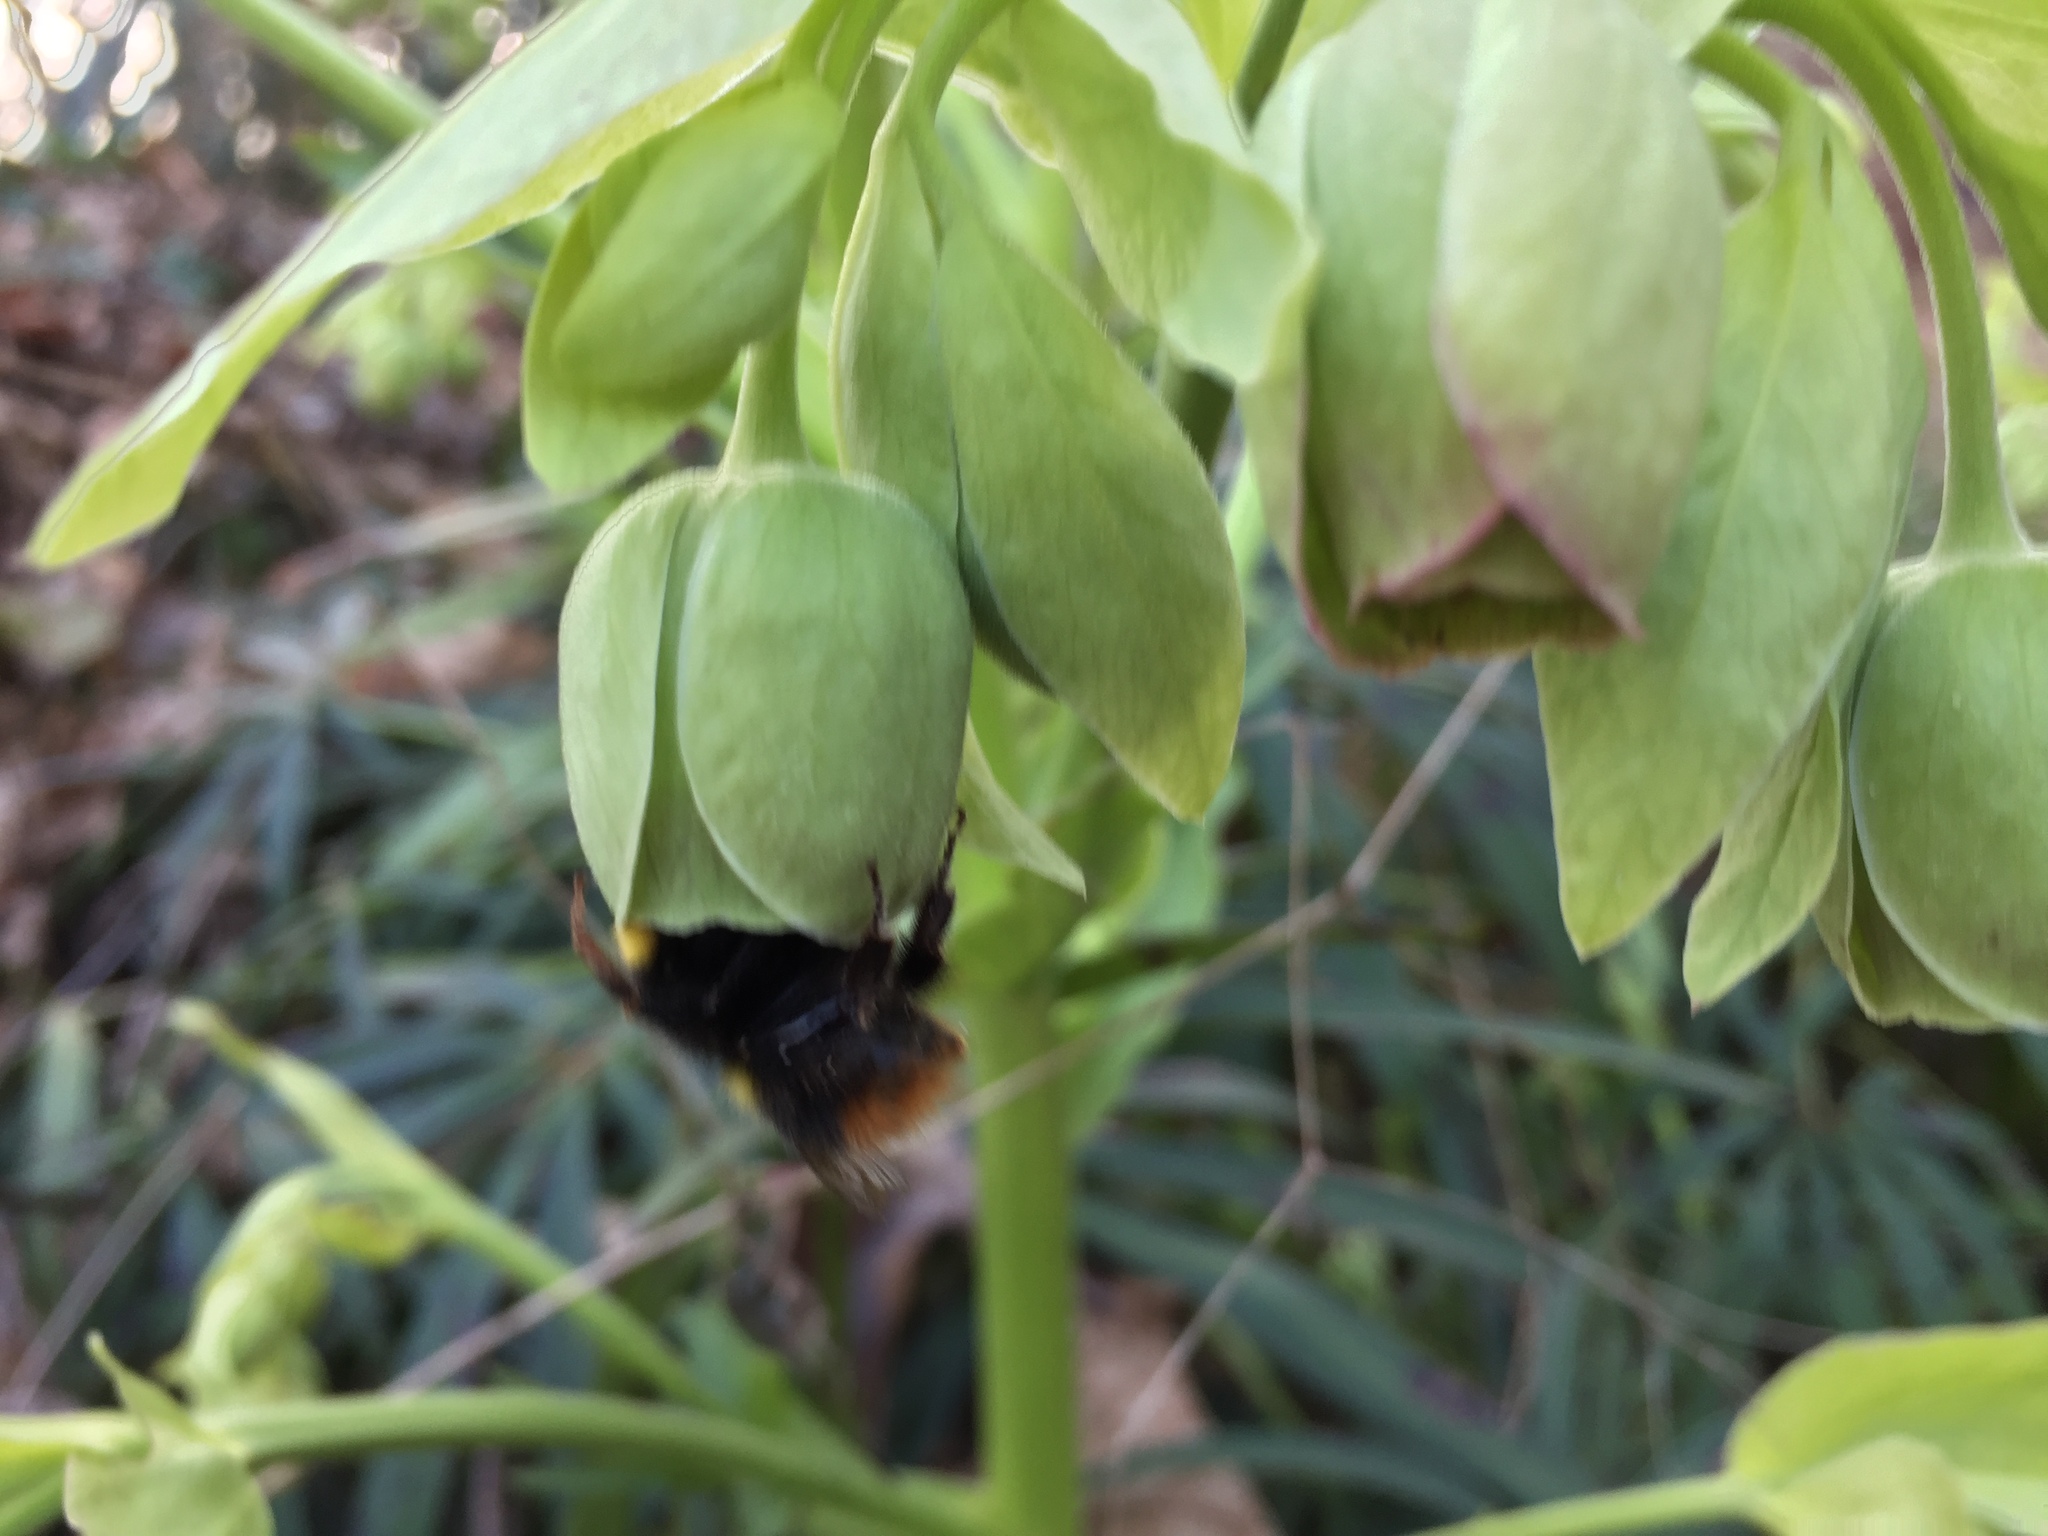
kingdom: Animalia
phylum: Arthropoda
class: Insecta
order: Hymenoptera
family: Apidae
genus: Bombus
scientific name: Bombus pratorum
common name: Early humble-bee
